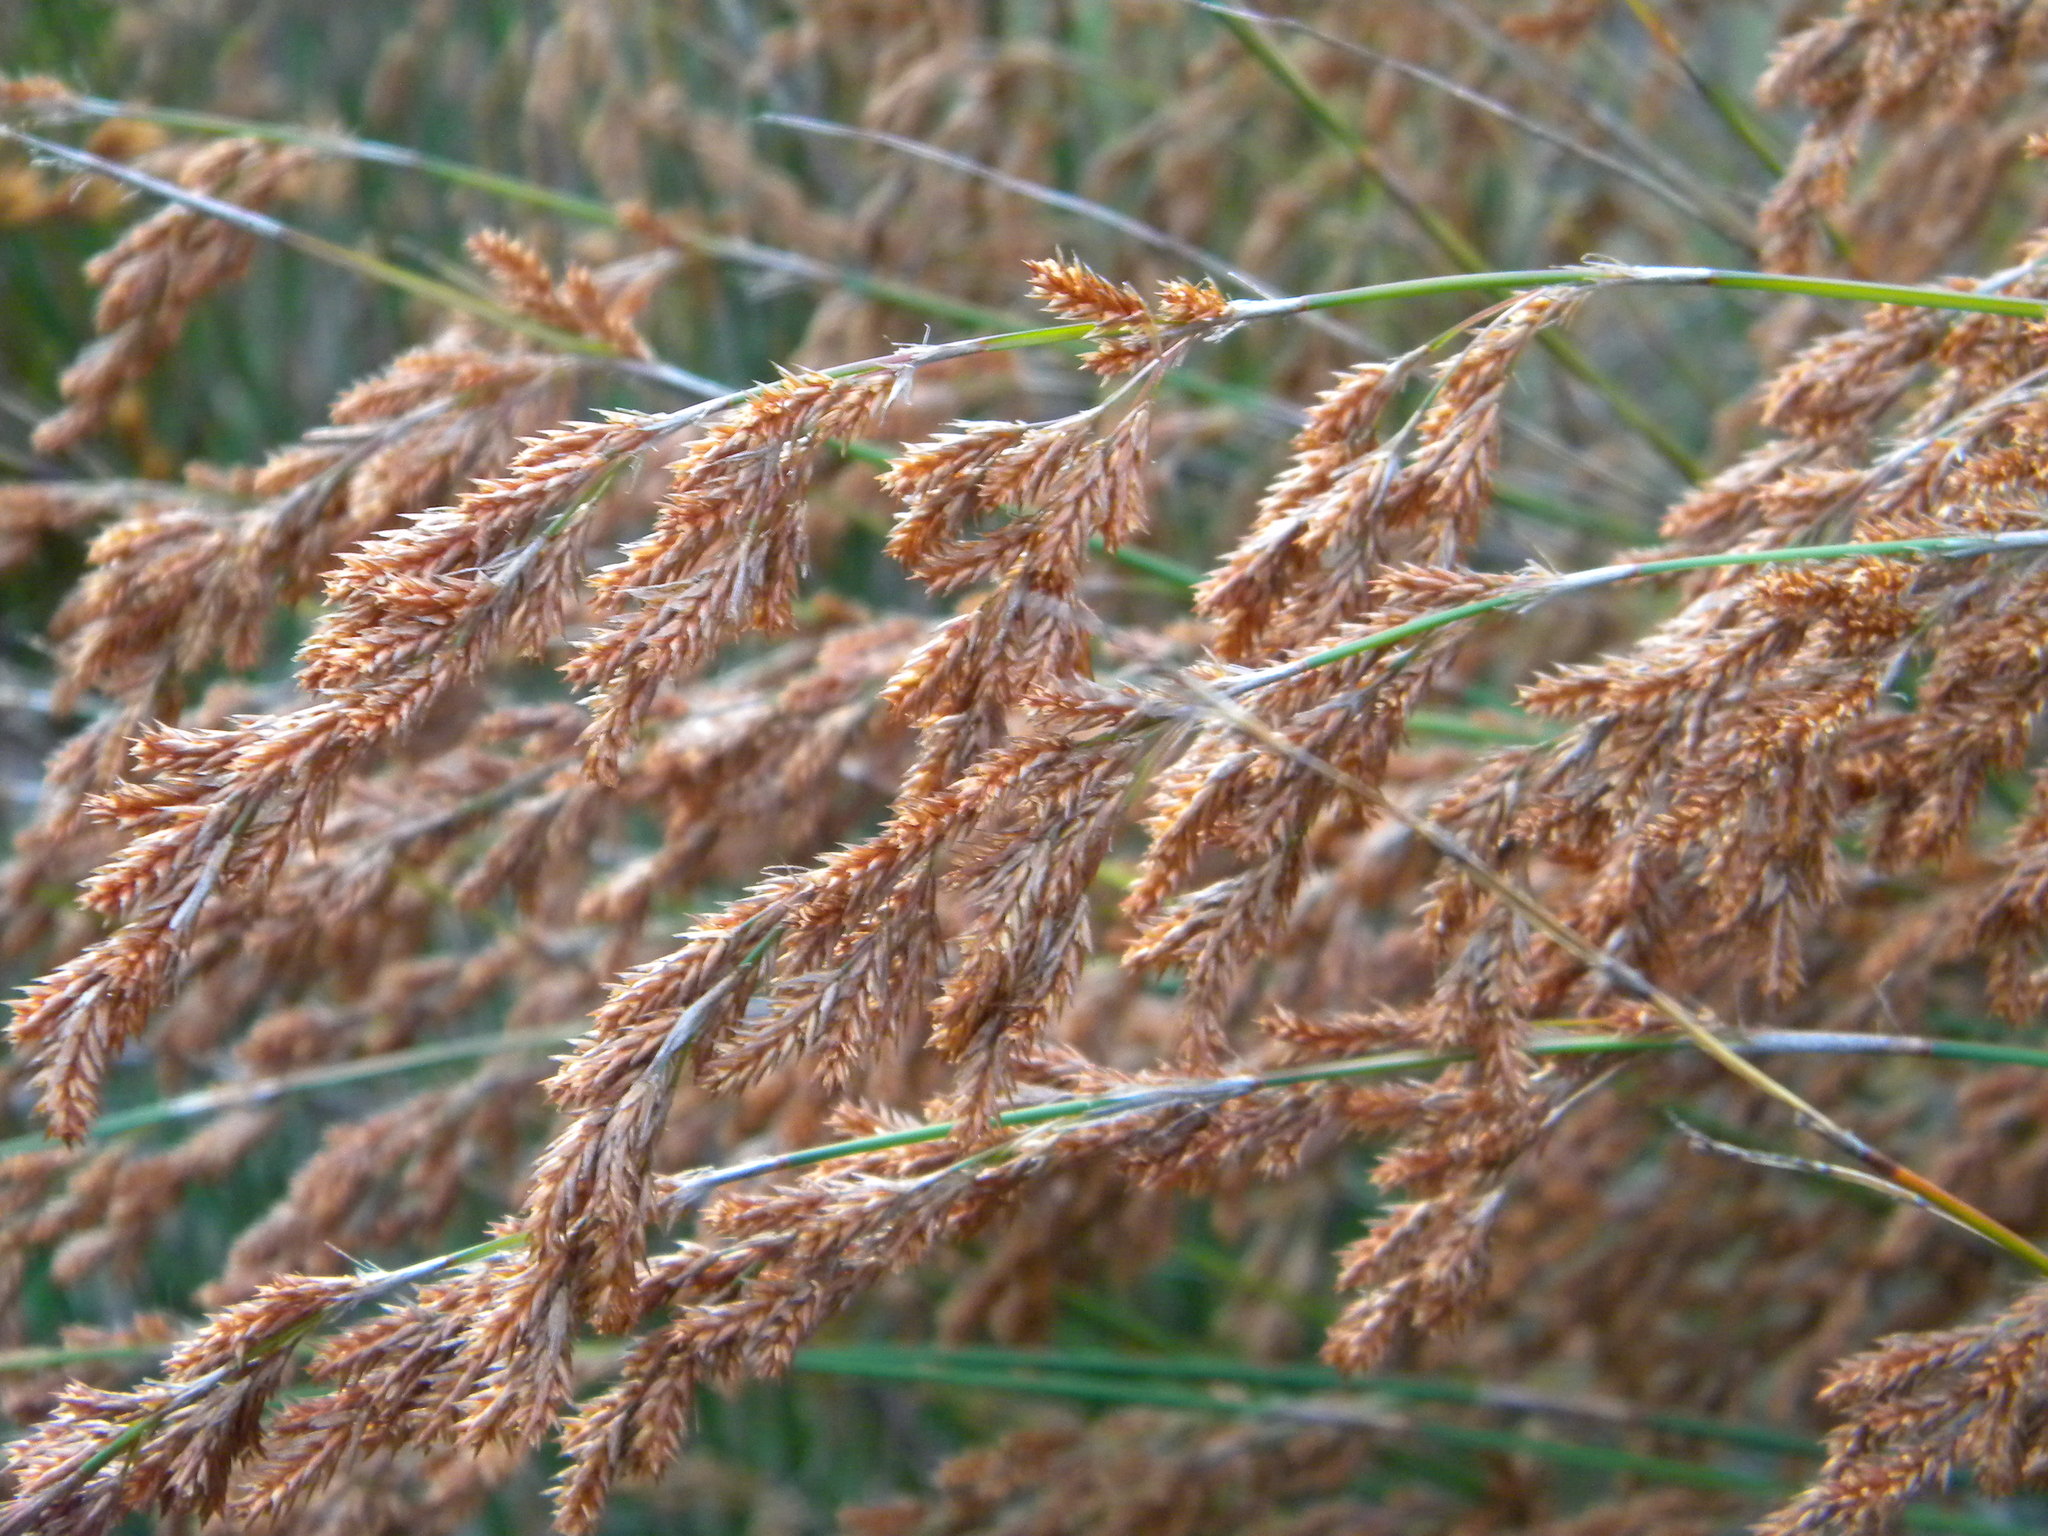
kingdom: Plantae
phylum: Tracheophyta
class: Liliopsida
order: Poales
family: Restionaceae
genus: Thamnochortus
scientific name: Thamnochortus insignis
